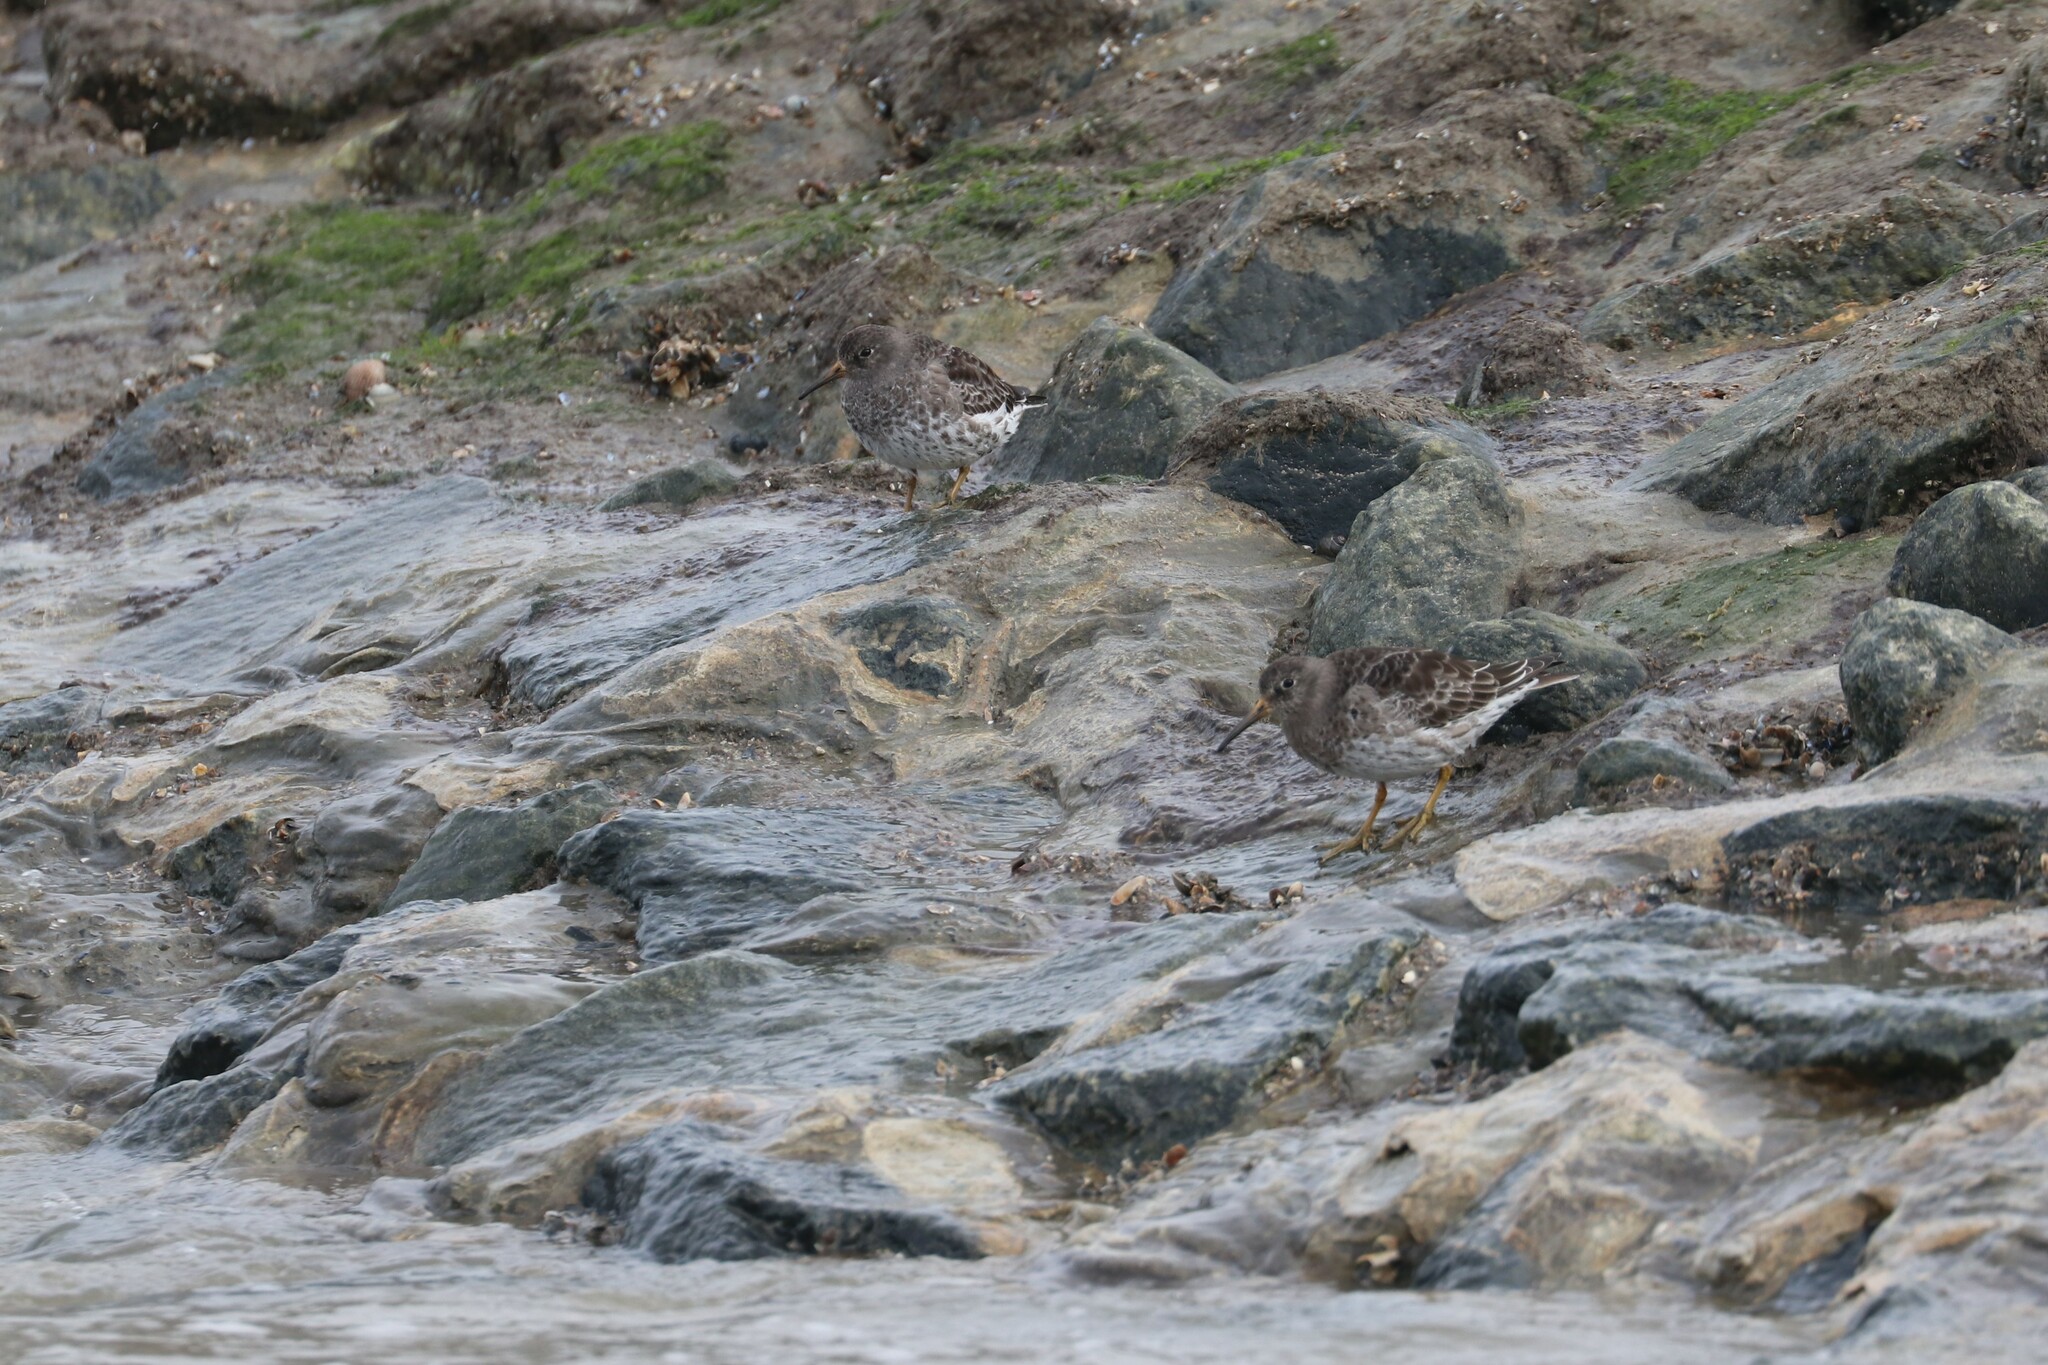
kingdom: Animalia
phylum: Chordata
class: Aves
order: Charadriiformes
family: Scolopacidae
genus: Calidris
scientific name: Calidris maritima
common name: Purple sandpiper
